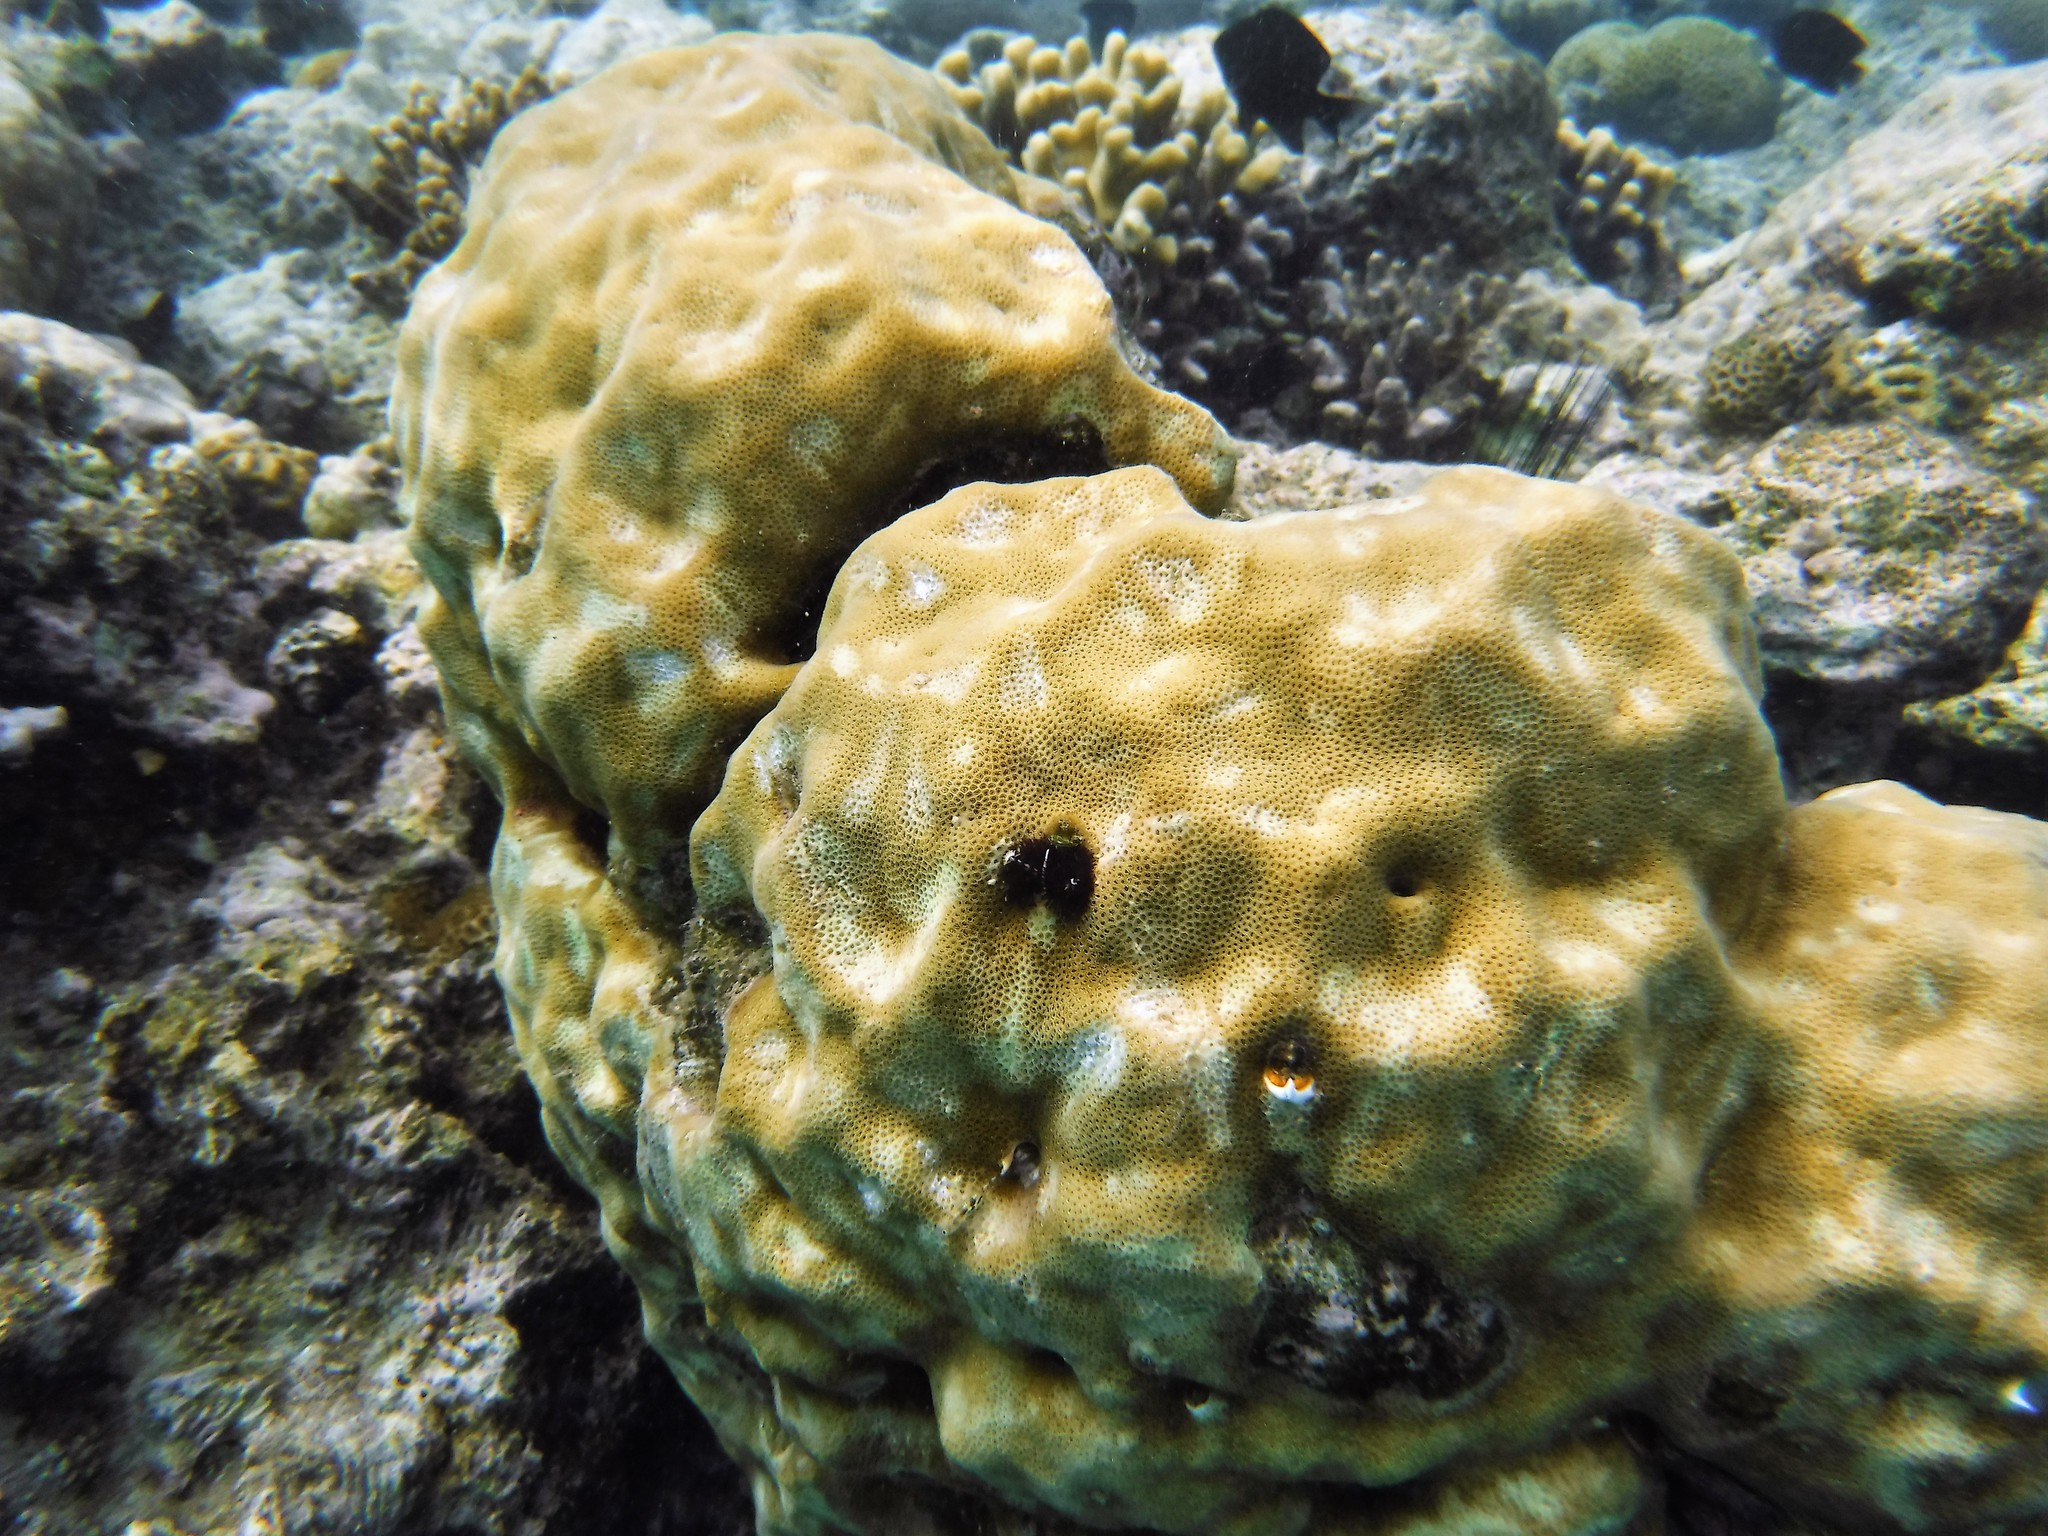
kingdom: Animalia
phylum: Cnidaria
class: Anthozoa
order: Scleractinia
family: Poritidae
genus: Porites
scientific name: Porites
